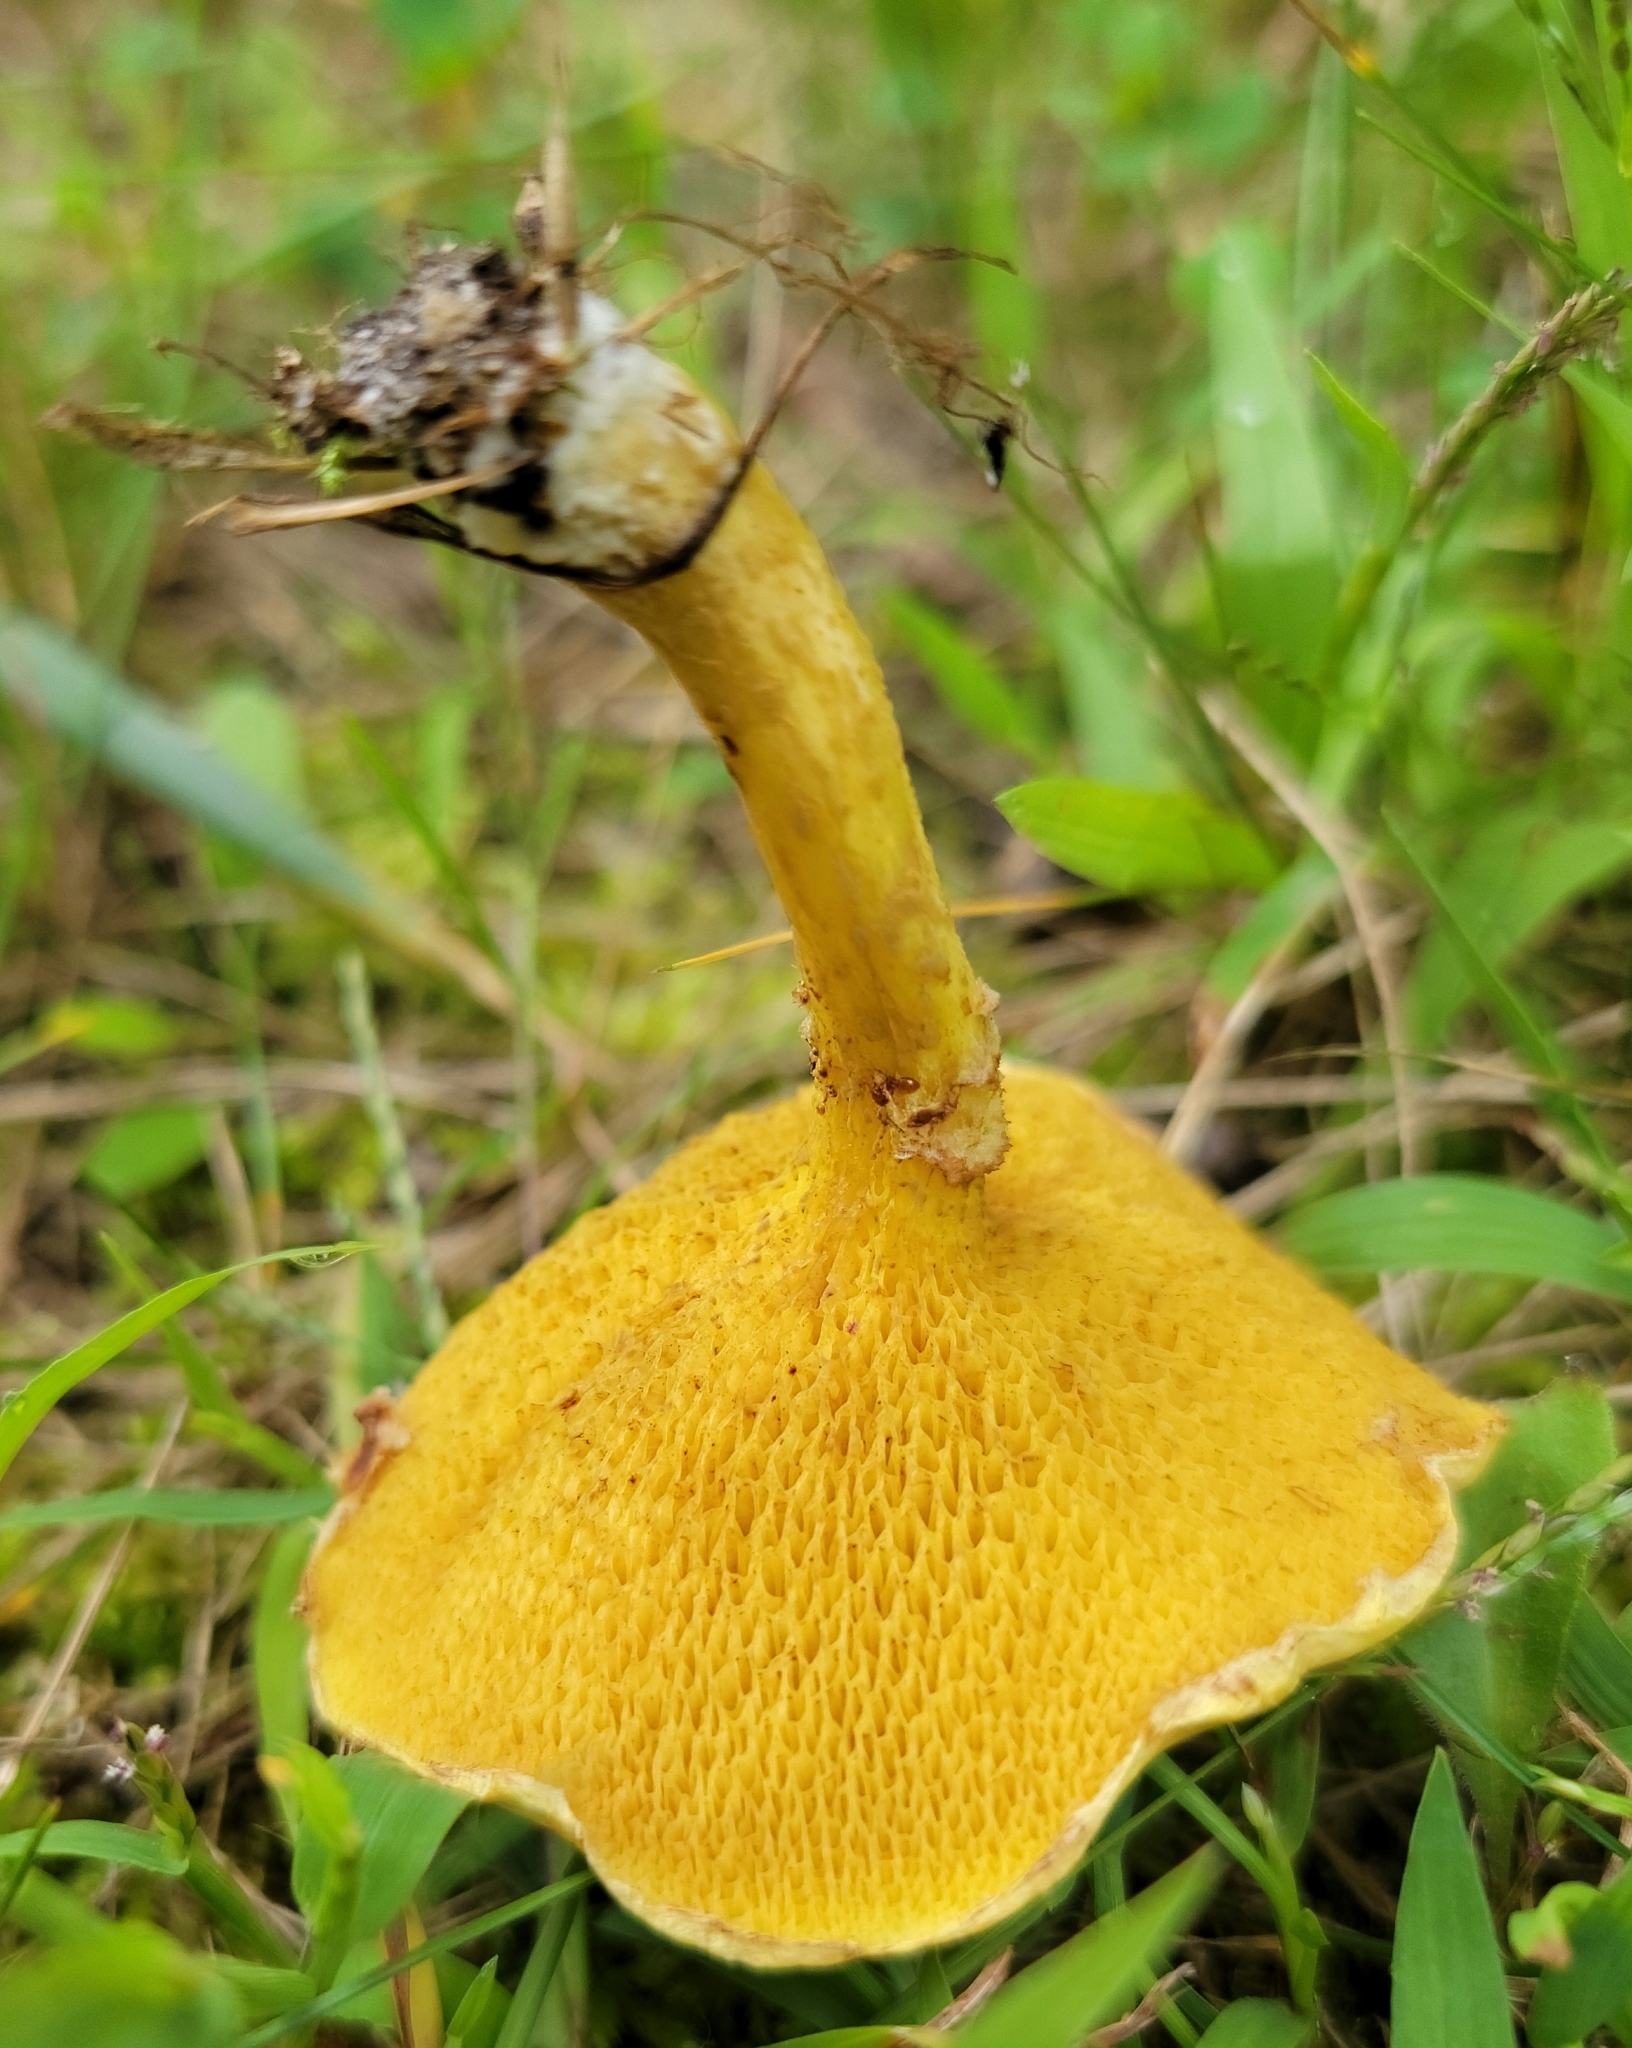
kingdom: Fungi
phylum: Basidiomycota
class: Agaricomycetes
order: Boletales
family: Suillaceae
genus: Suillus
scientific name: Suillus americanus
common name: Chicken fat mushroom
